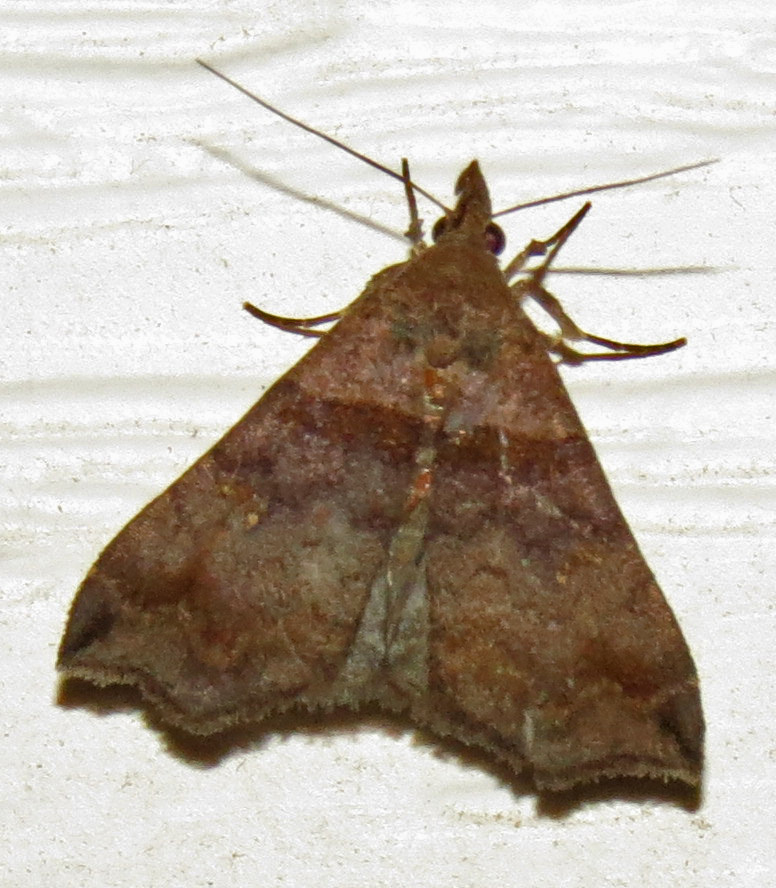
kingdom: Animalia
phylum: Arthropoda
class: Insecta
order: Lepidoptera
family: Erebidae
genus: Lascoria
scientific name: Lascoria ambigualis
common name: Ambiguous moth
